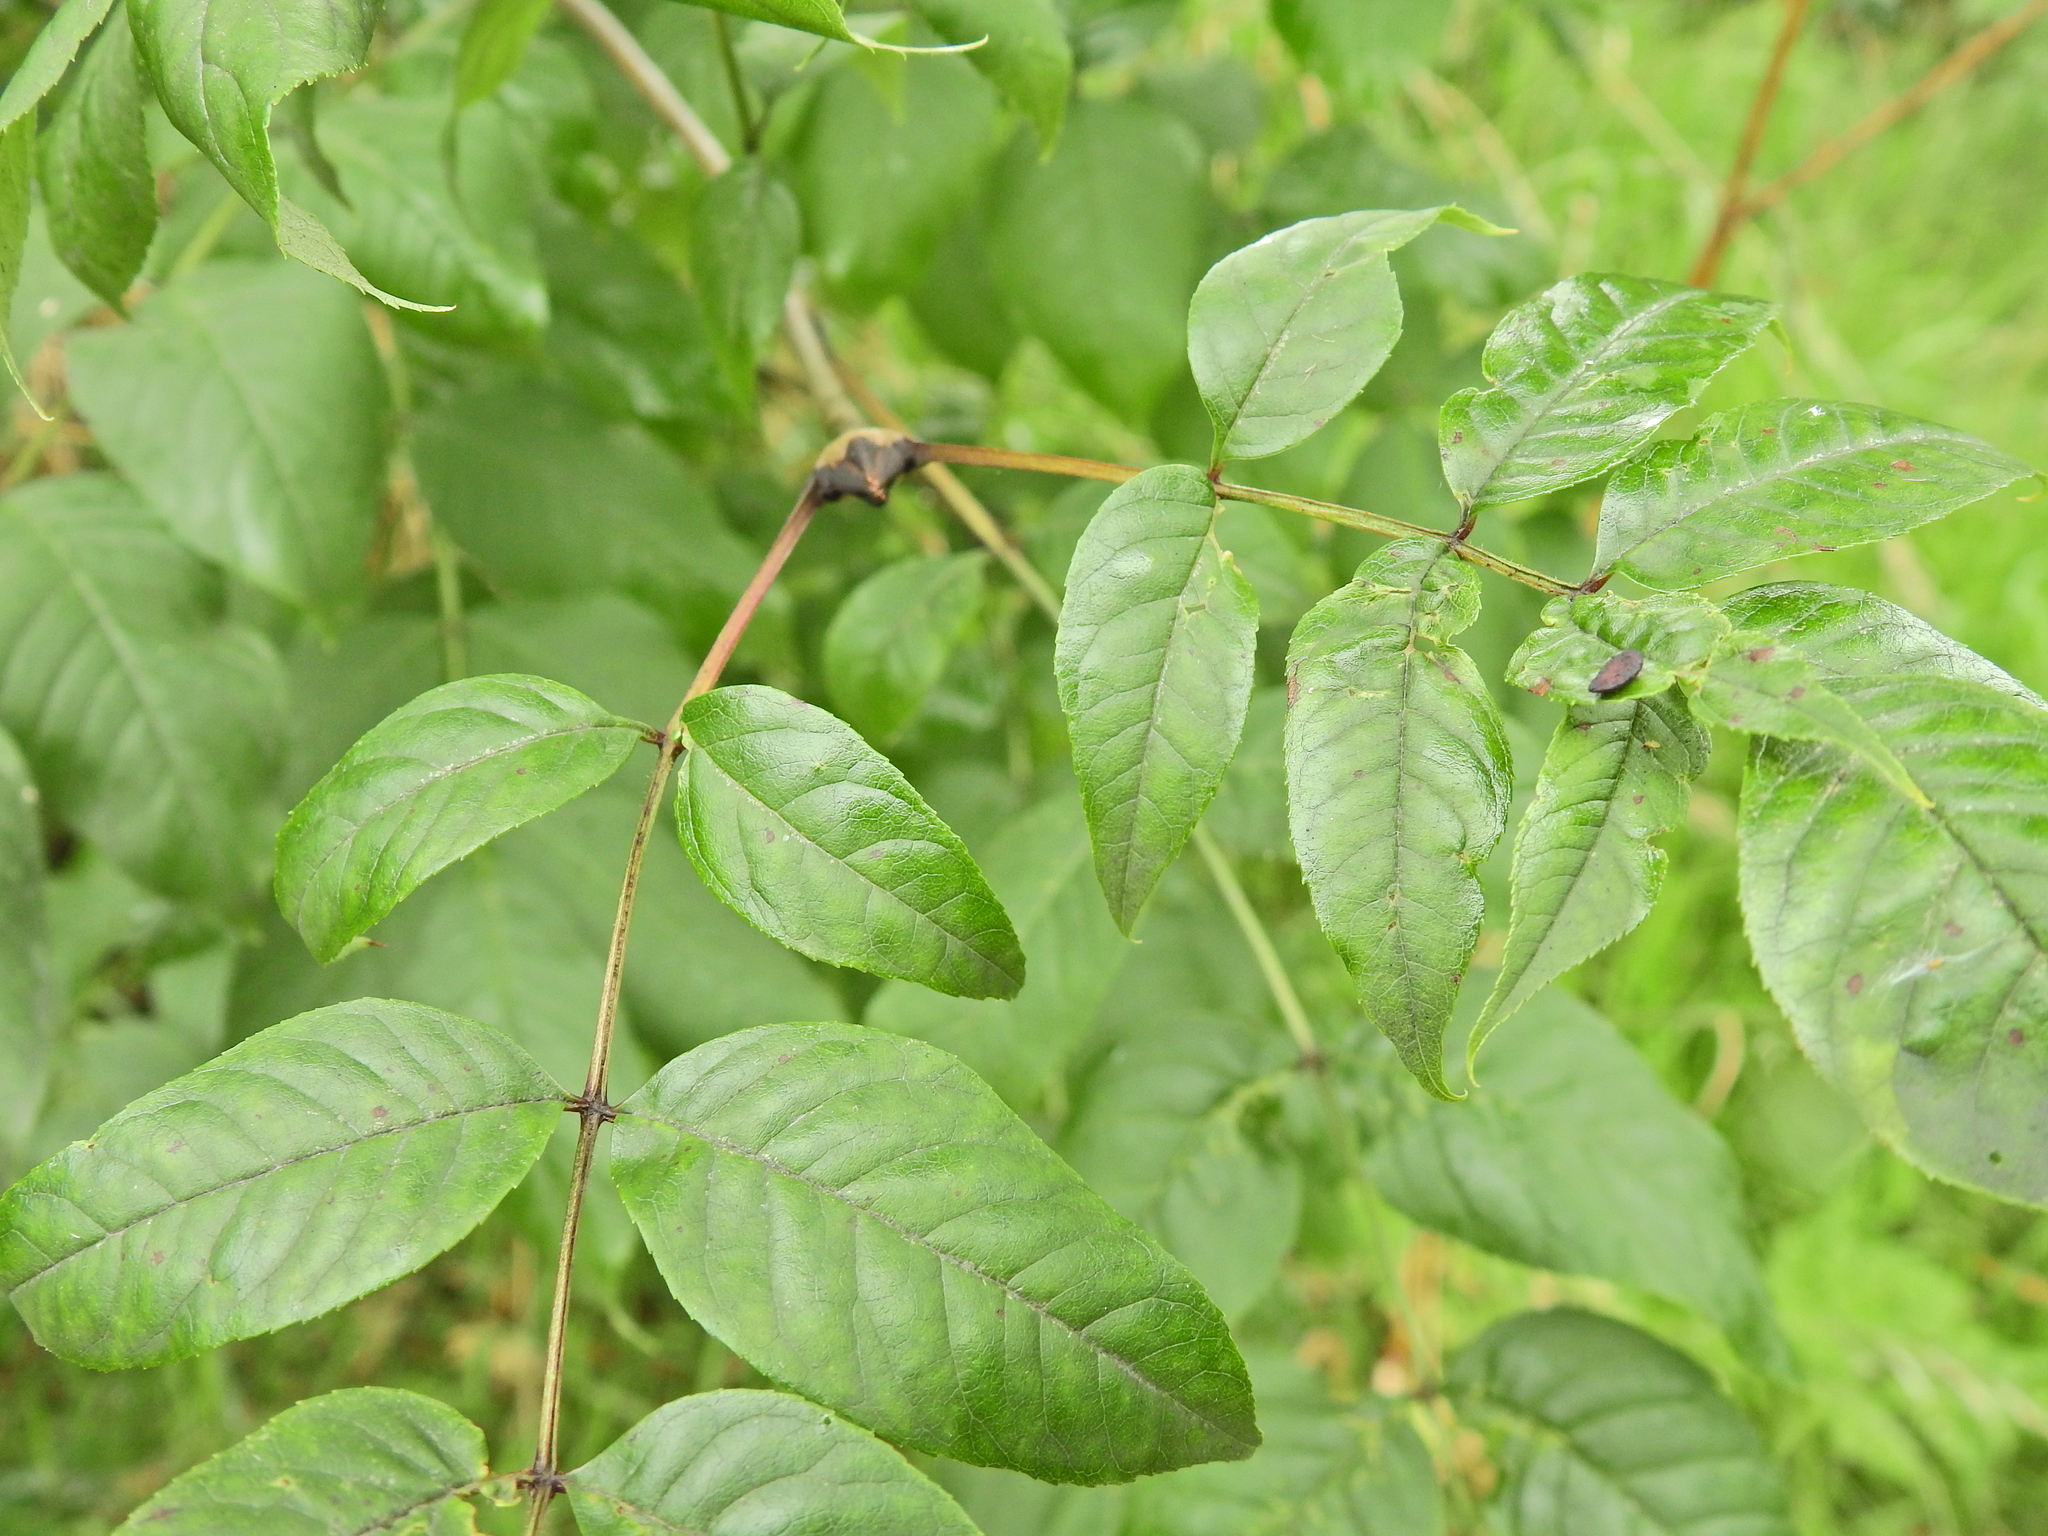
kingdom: Plantae
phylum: Tracheophyta
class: Magnoliopsida
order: Lamiales
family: Oleaceae
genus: Fraxinus
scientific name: Fraxinus excelsior
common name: European ash
